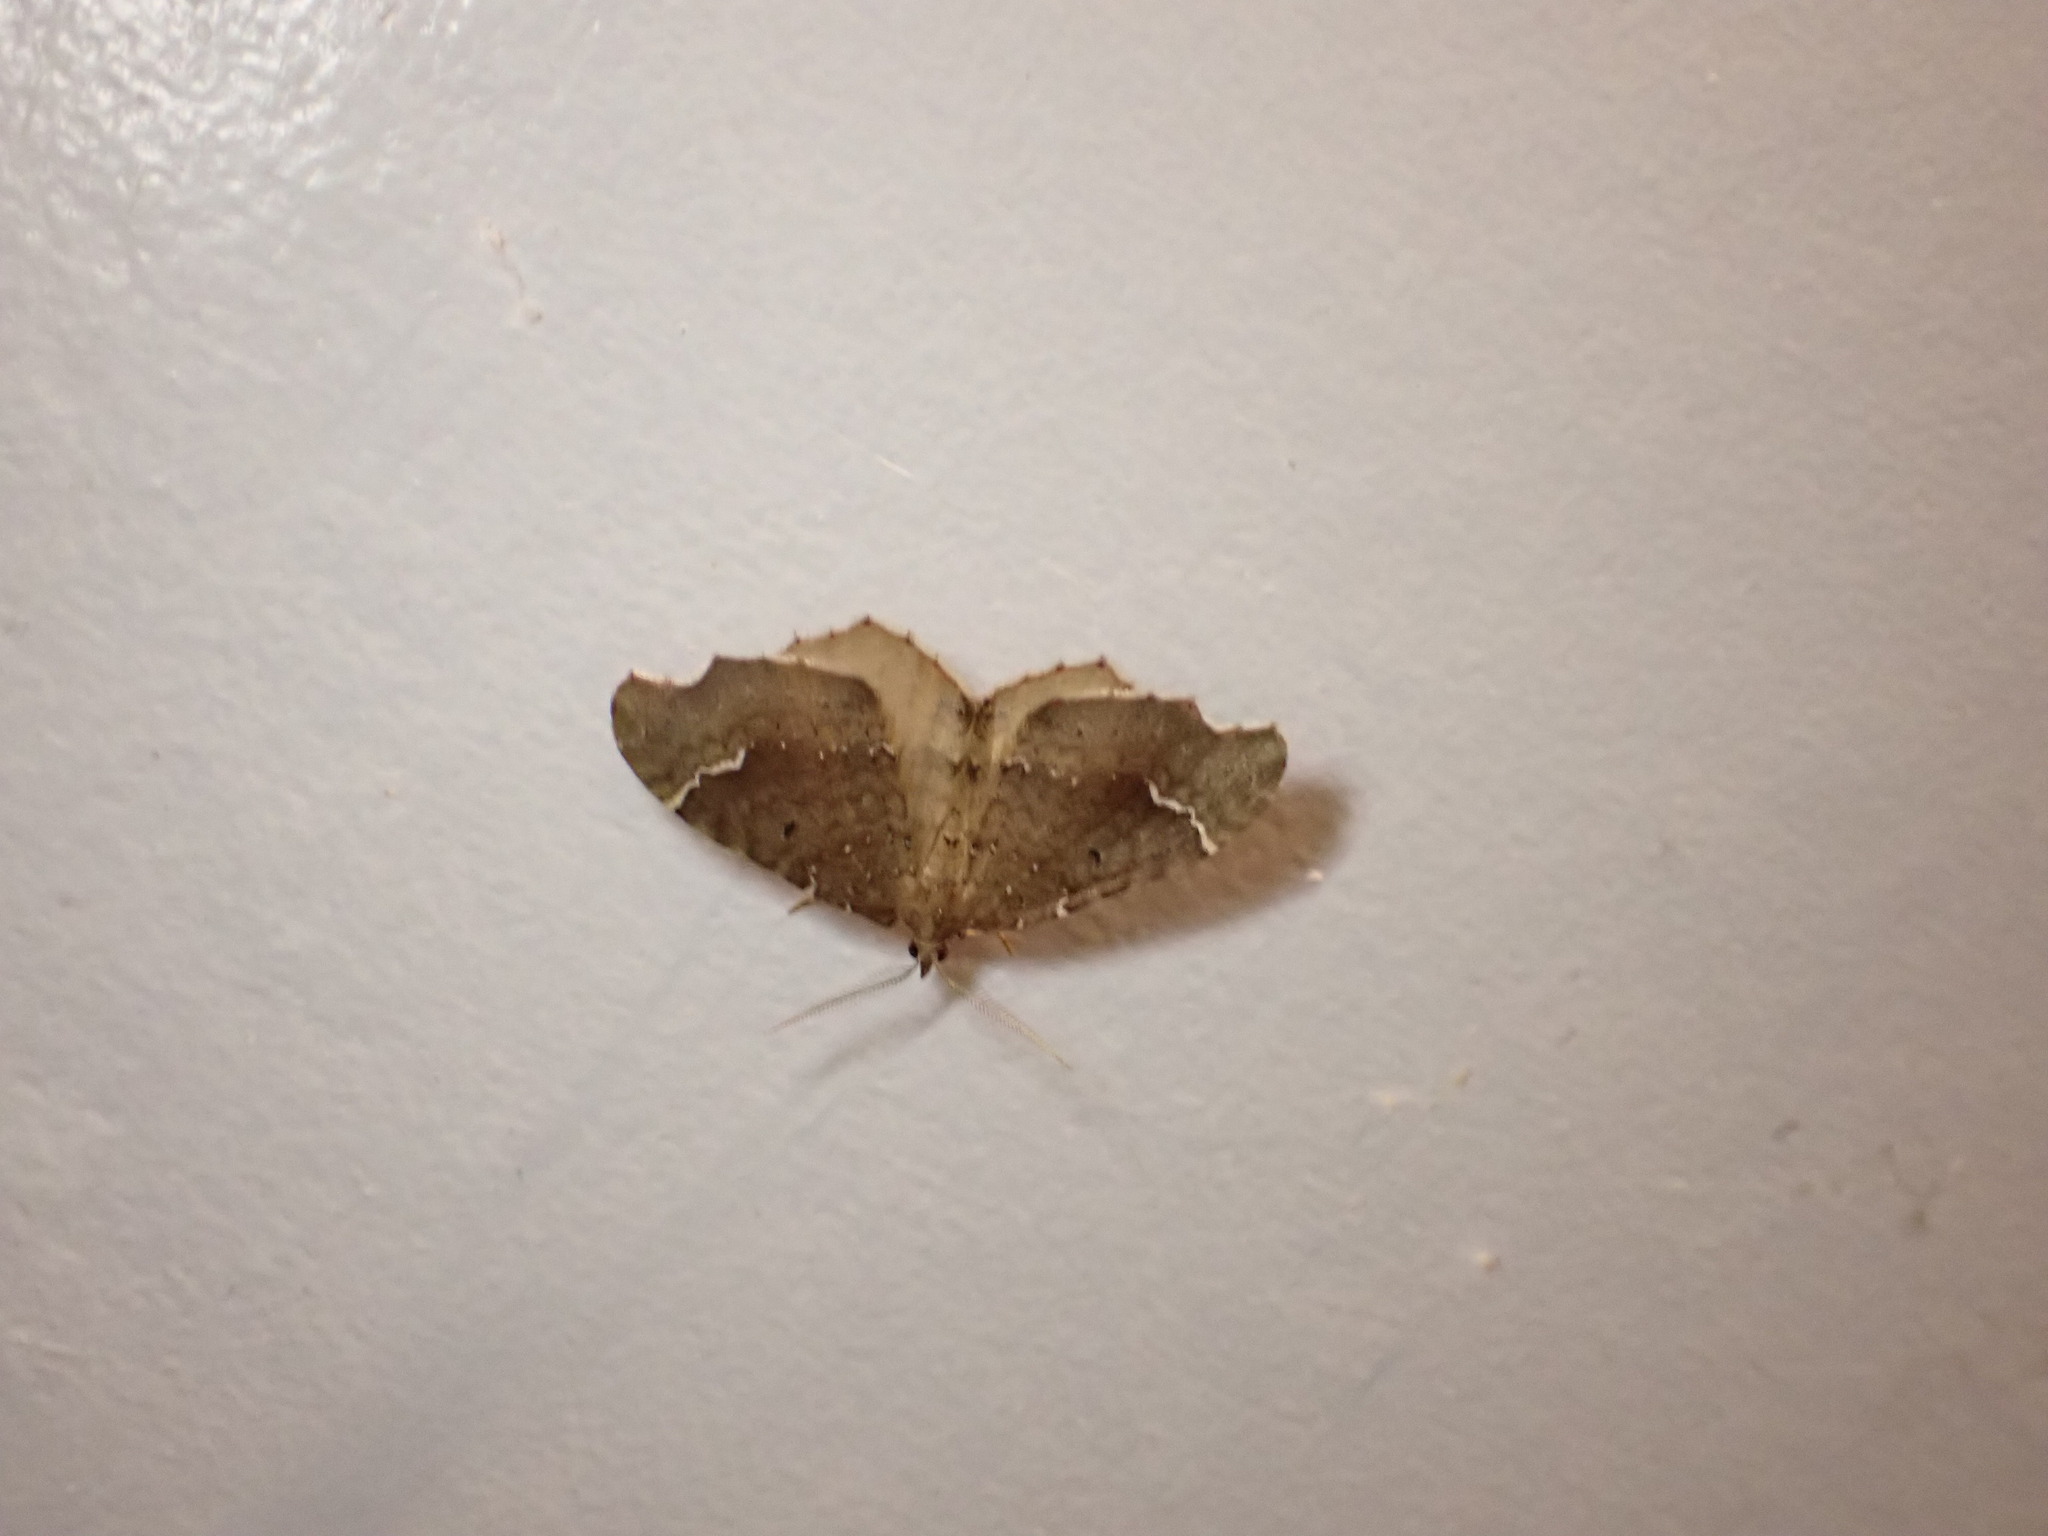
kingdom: Animalia
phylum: Arthropoda
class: Insecta
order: Lepidoptera
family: Geometridae
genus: Asaphodes
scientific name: Asaphodes camelias
